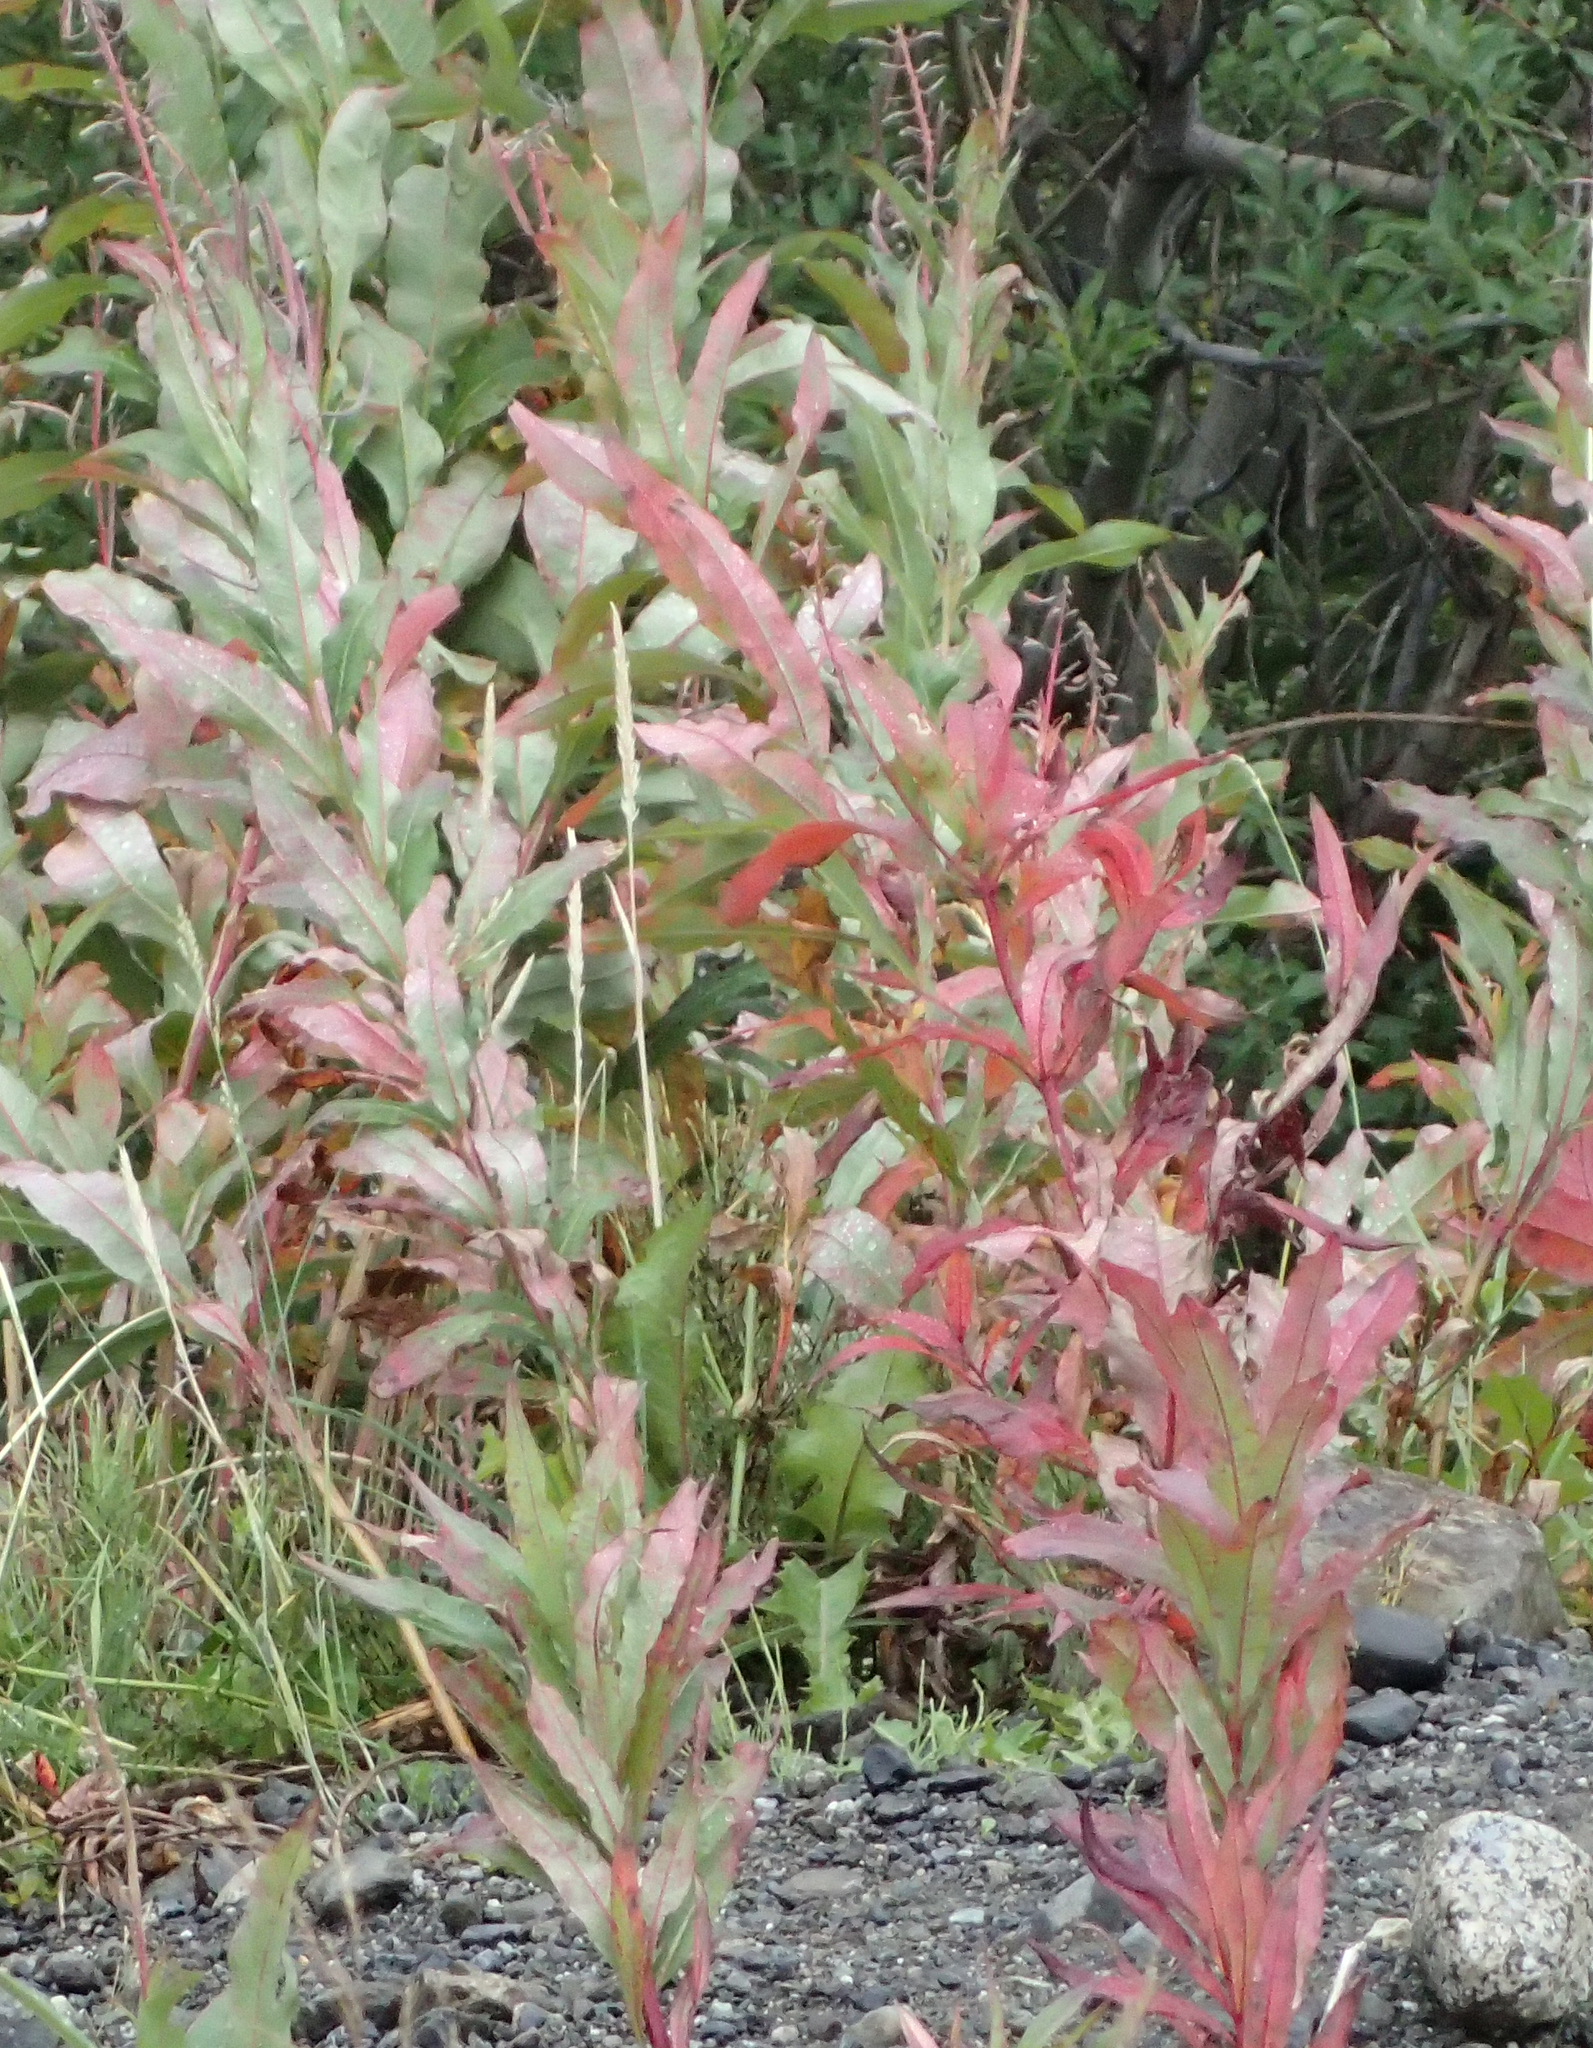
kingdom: Plantae
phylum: Tracheophyta
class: Magnoliopsida
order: Myrtales
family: Onagraceae
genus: Chamaenerion
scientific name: Chamaenerion angustifolium
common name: Fireweed
